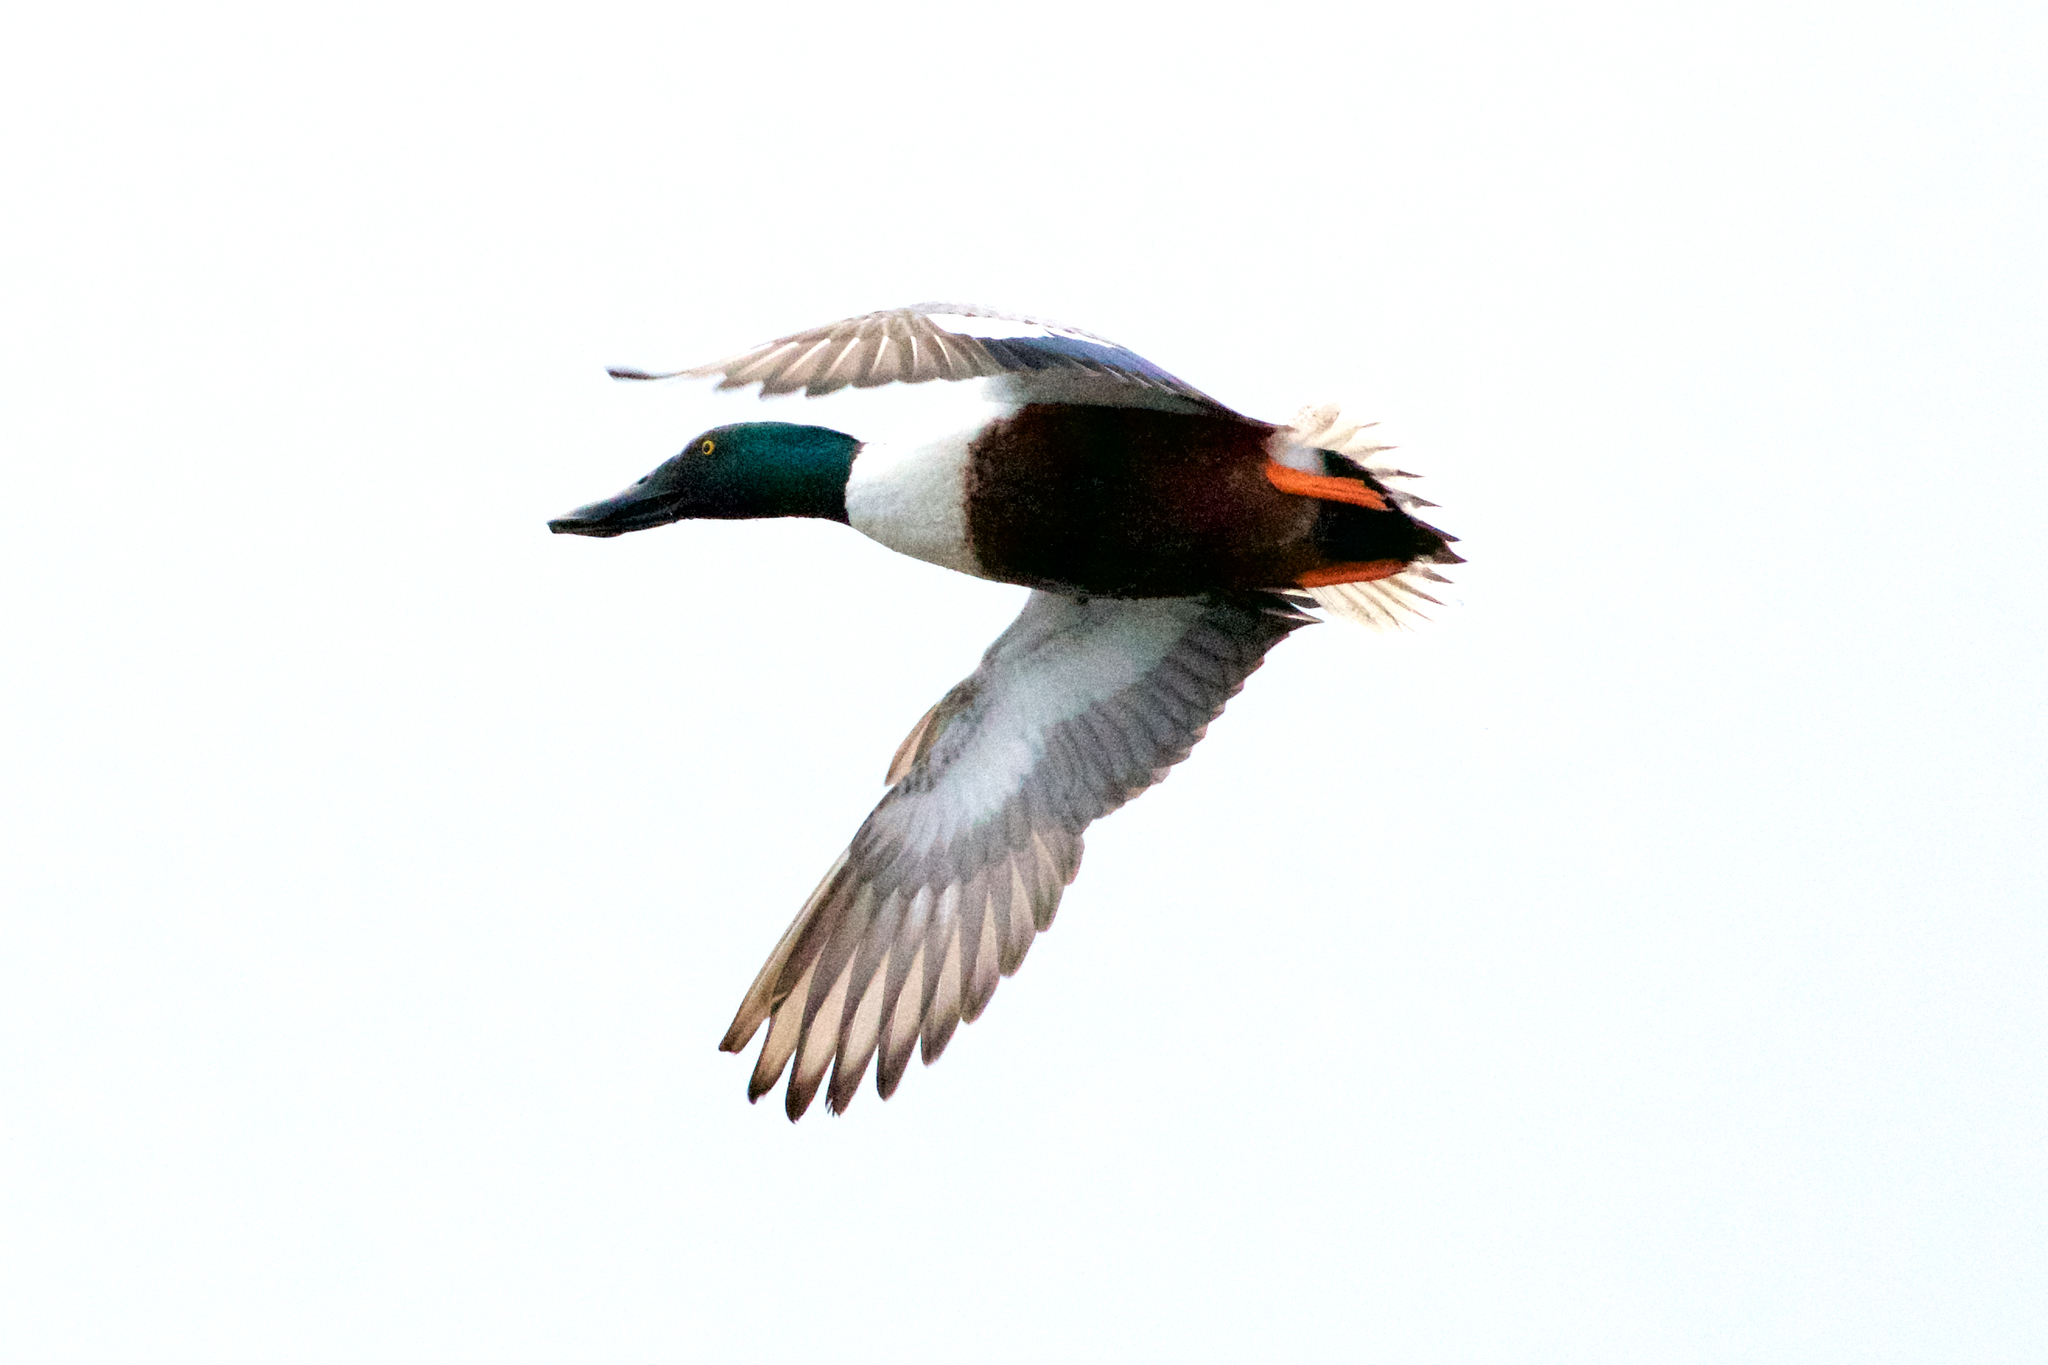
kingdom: Animalia
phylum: Chordata
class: Aves
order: Anseriformes
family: Anatidae
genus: Spatula
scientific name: Spatula clypeata
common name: Northern shoveler
